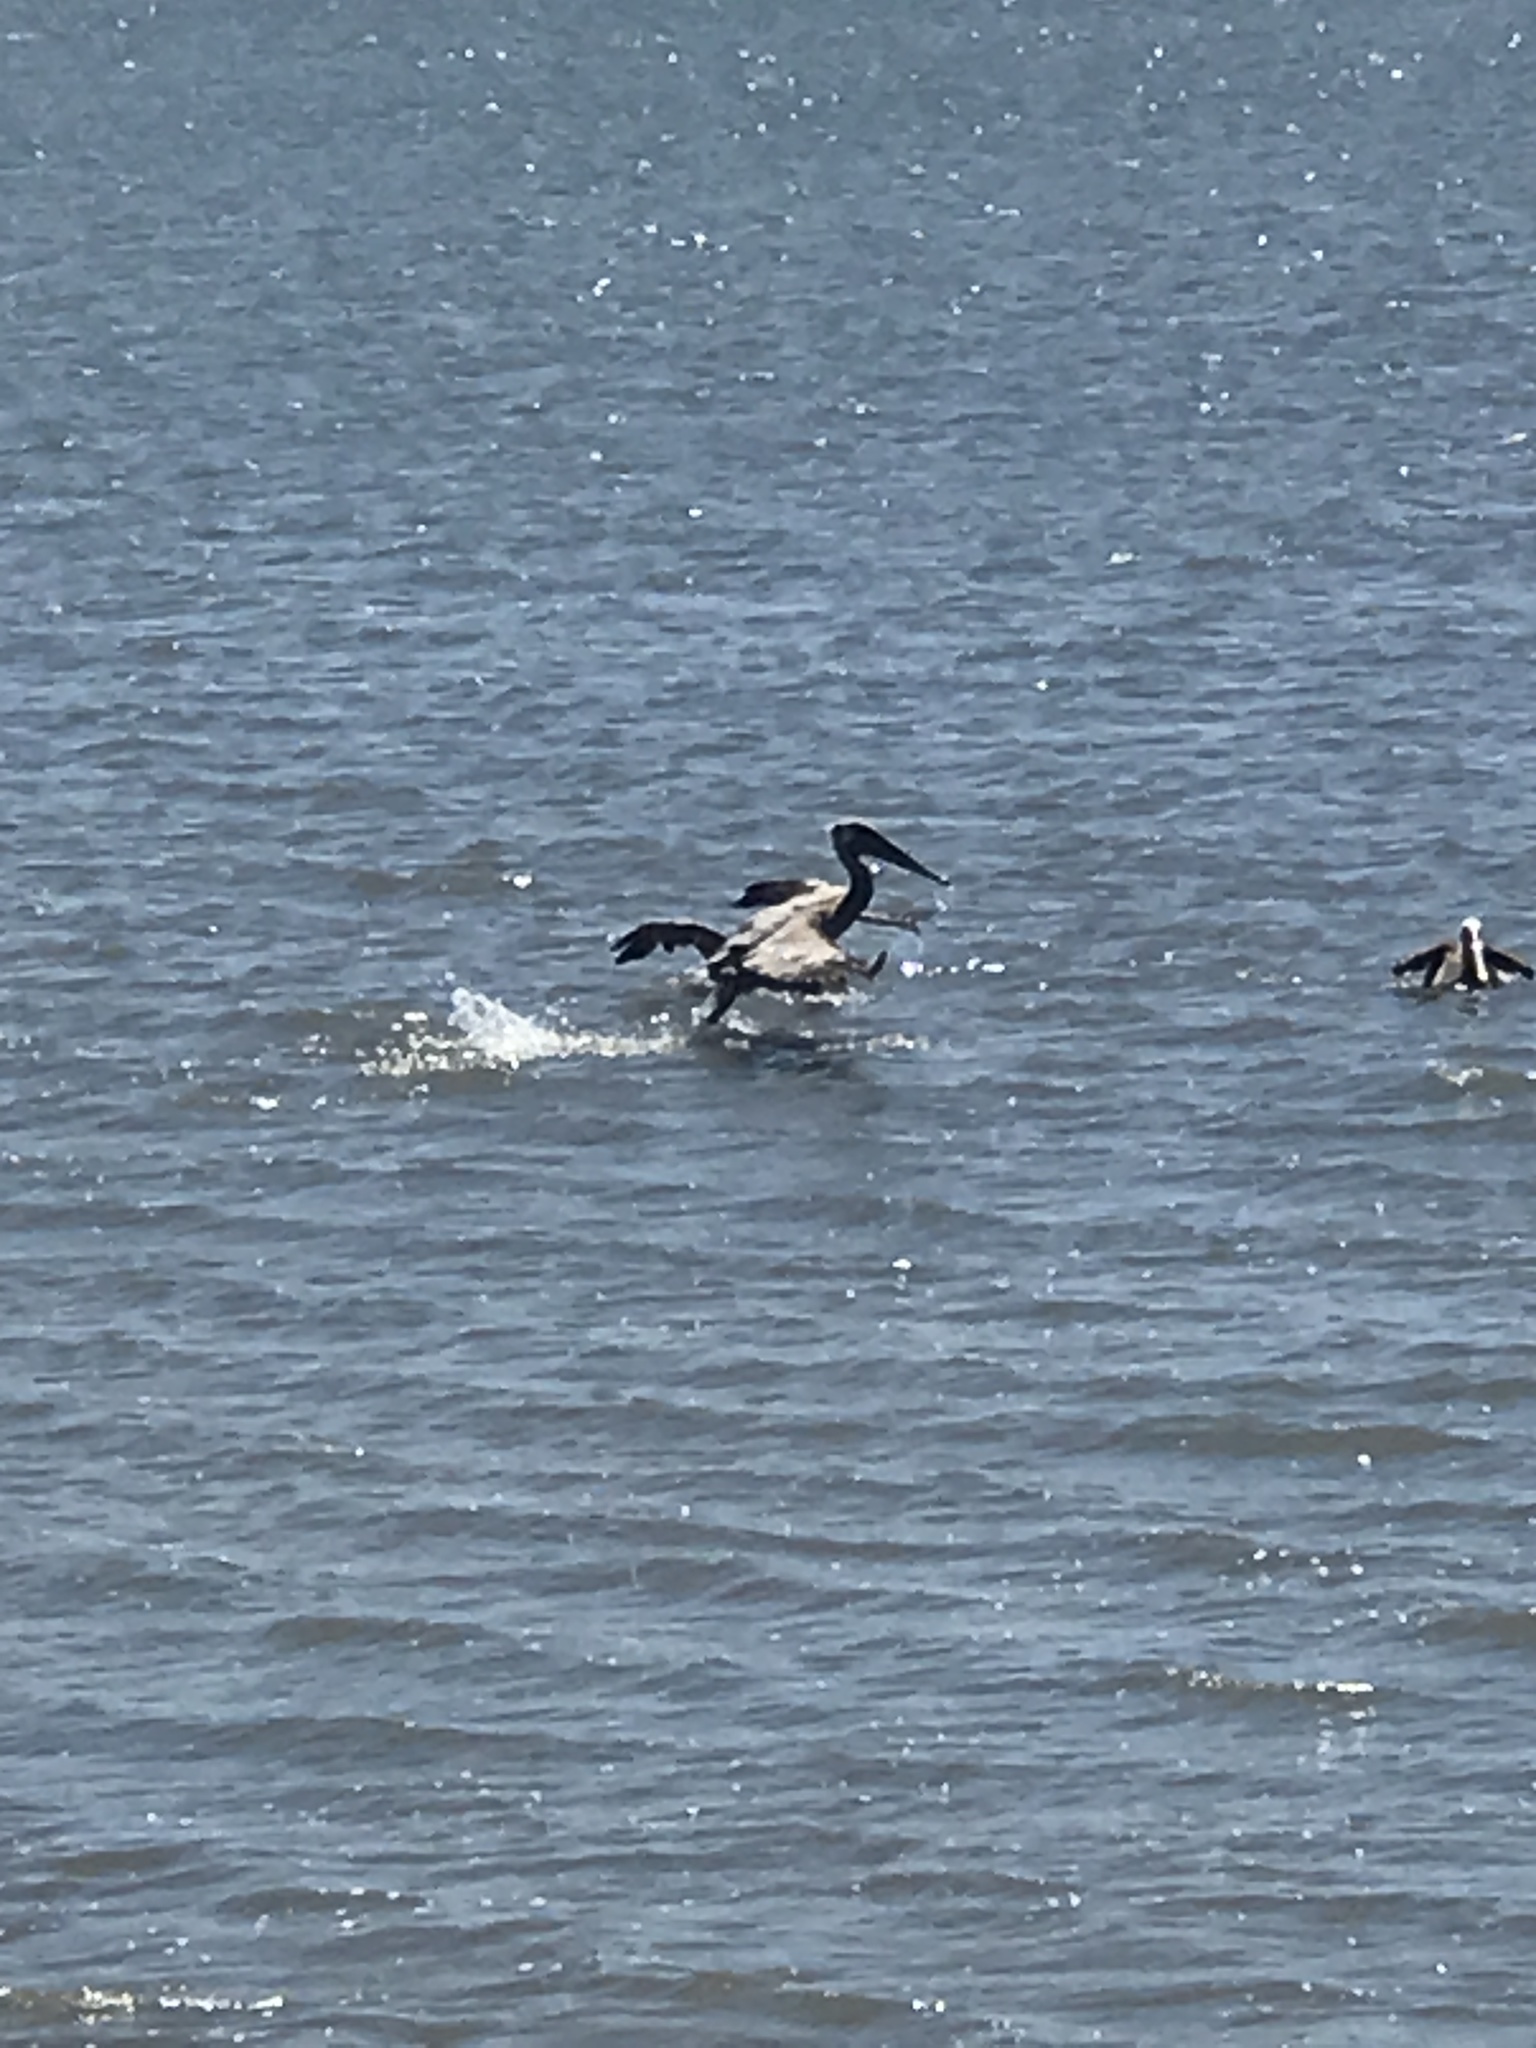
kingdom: Animalia
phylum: Chordata
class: Aves
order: Pelecaniformes
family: Pelecanidae
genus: Pelecanus
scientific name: Pelecanus occidentalis
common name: Brown pelican
